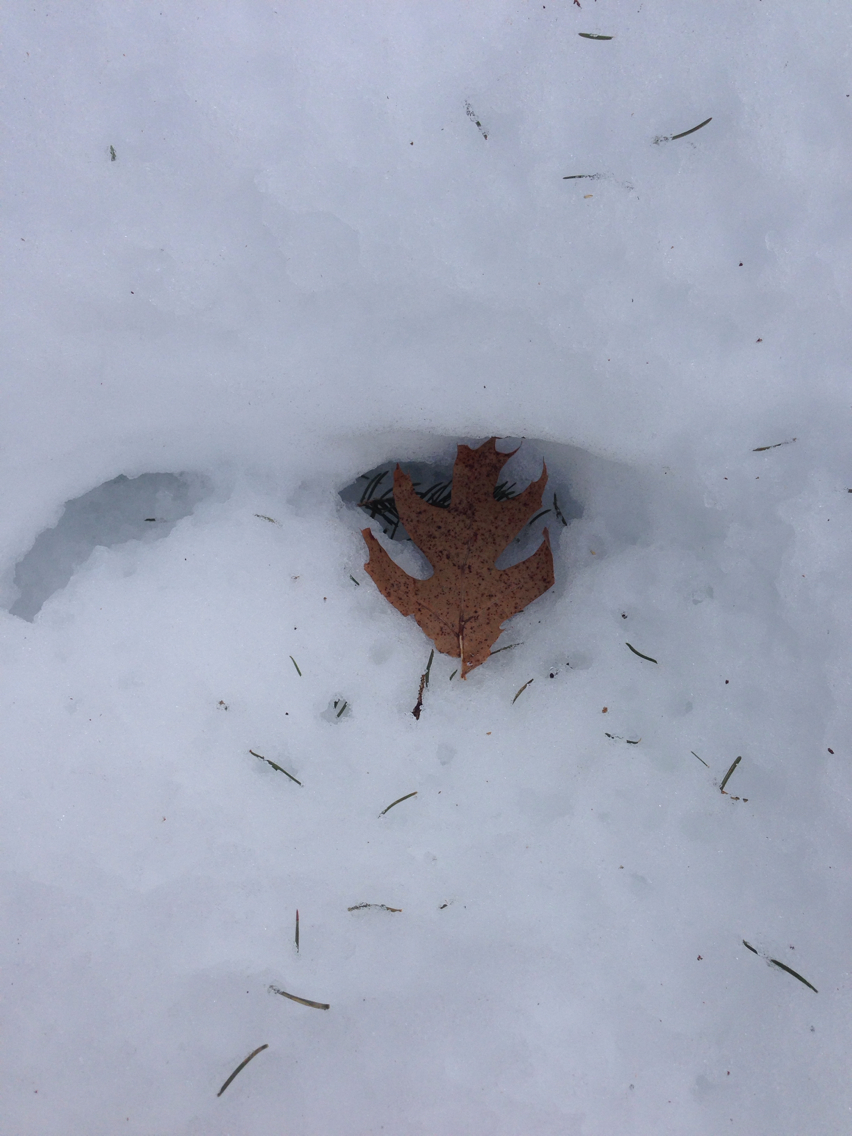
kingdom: Plantae
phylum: Tracheophyta
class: Magnoliopsida
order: Fagales
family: Fagaceae
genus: Quercus
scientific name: Quercus rubra
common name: Red oak
